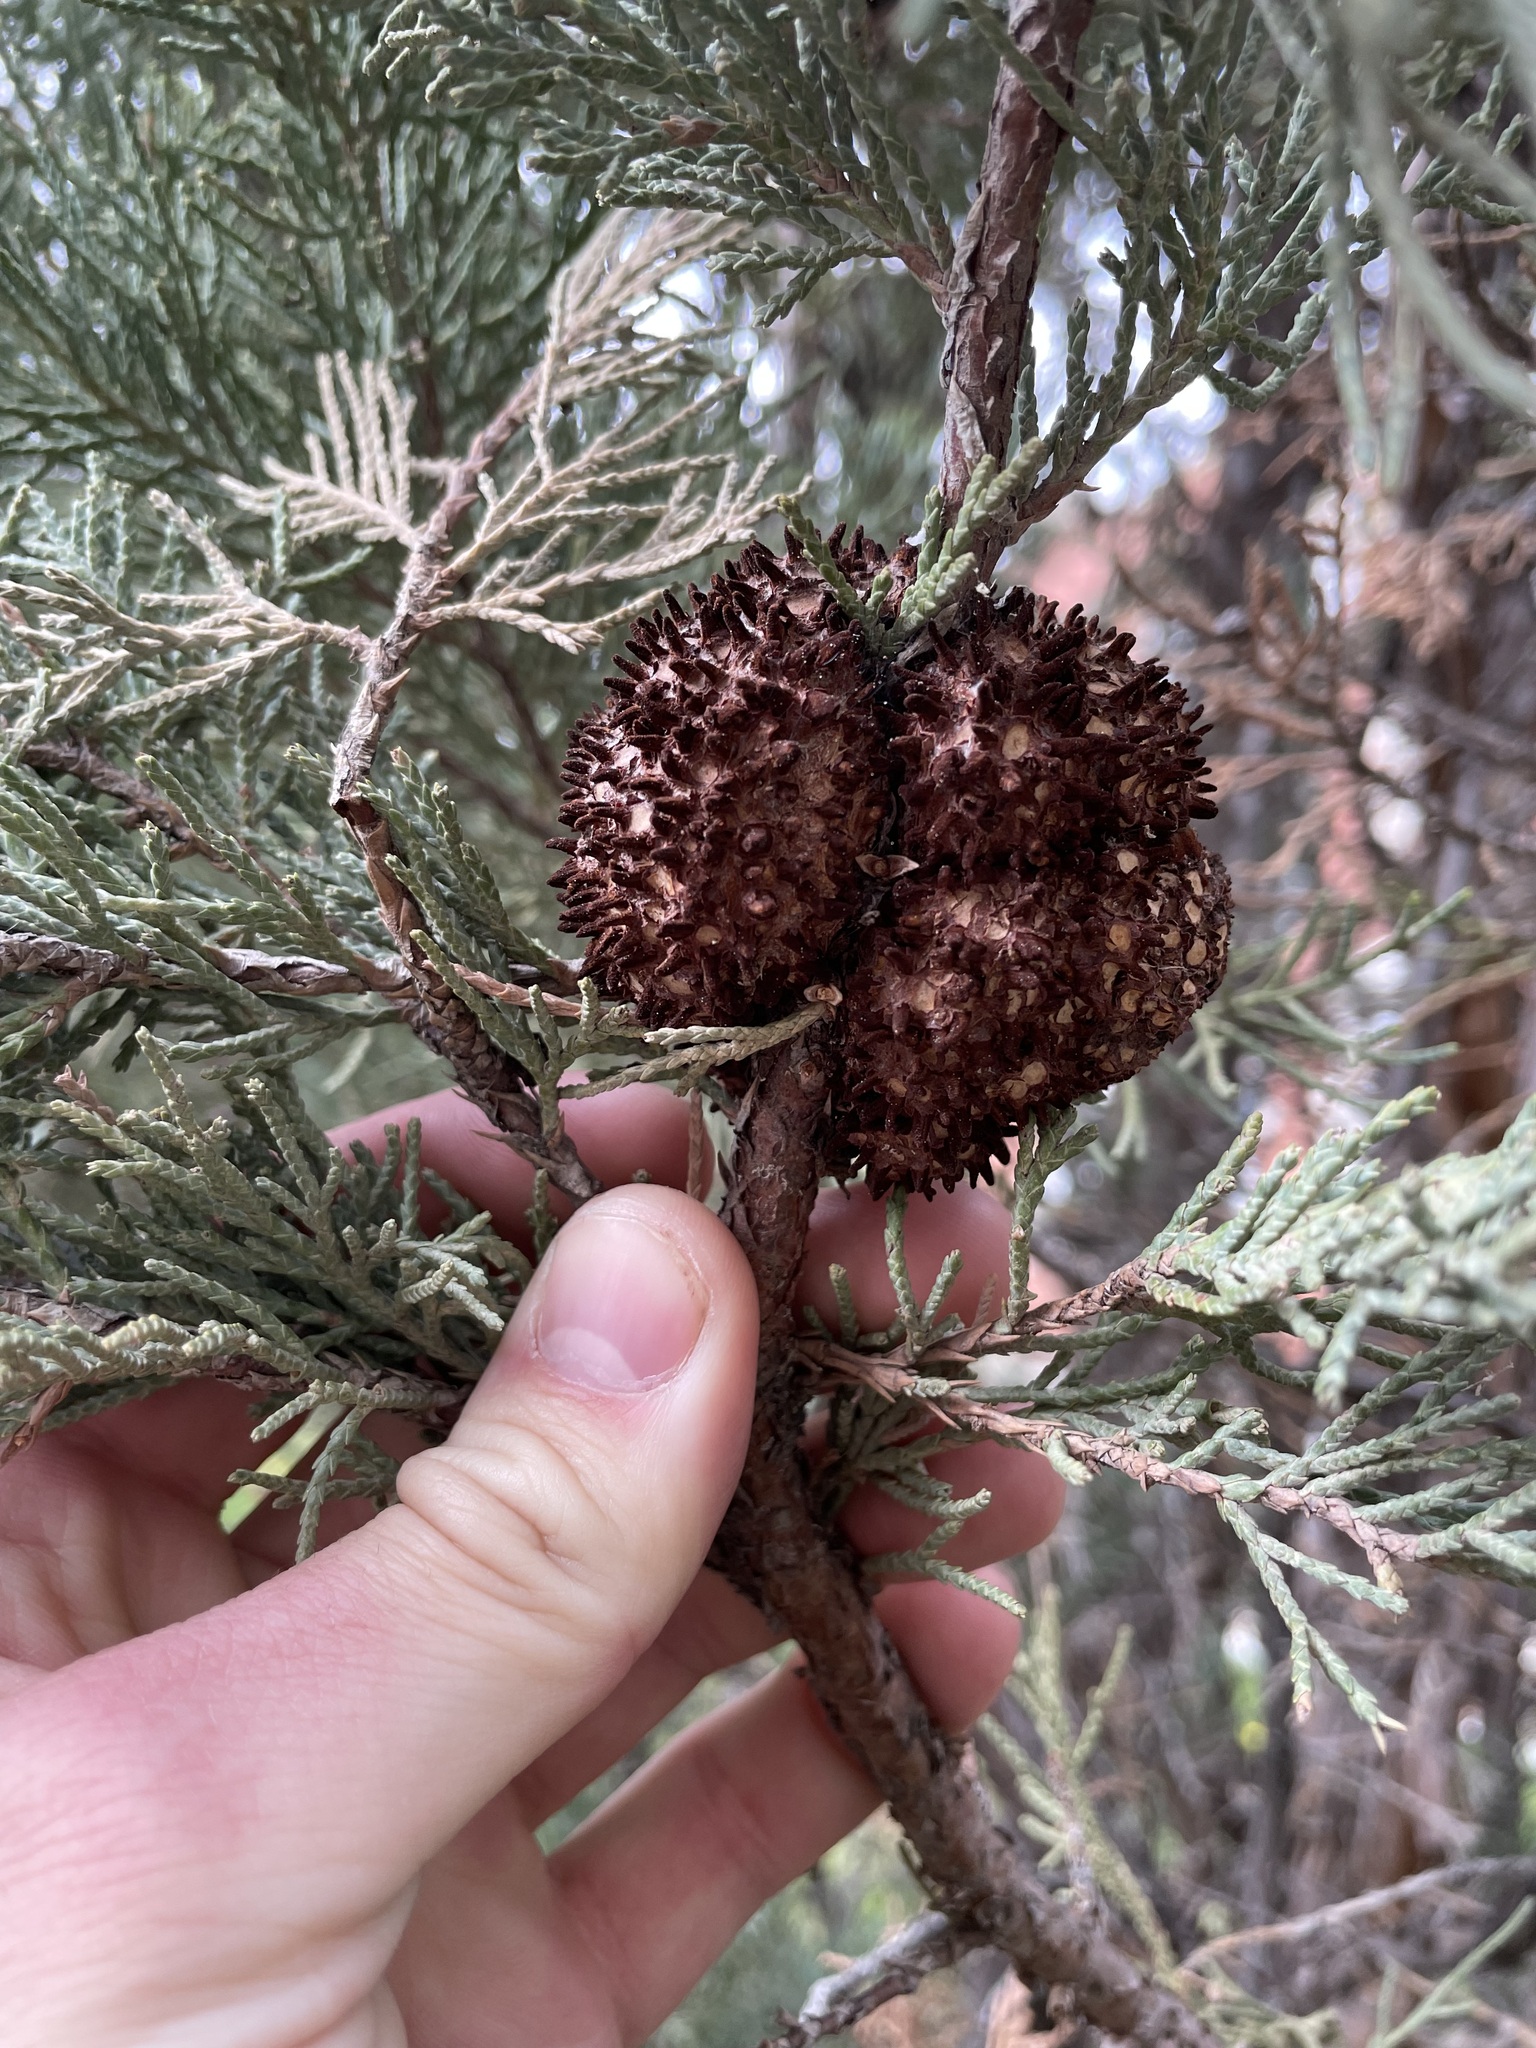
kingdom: Fungi
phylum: Basidiomycota
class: Pucciniomycetes
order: Pucciniales
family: Gymnosporangiaceae
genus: Gymnosporangium
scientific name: Gymnosporangium juniperi-virginianae
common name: Juniper-apple rust
